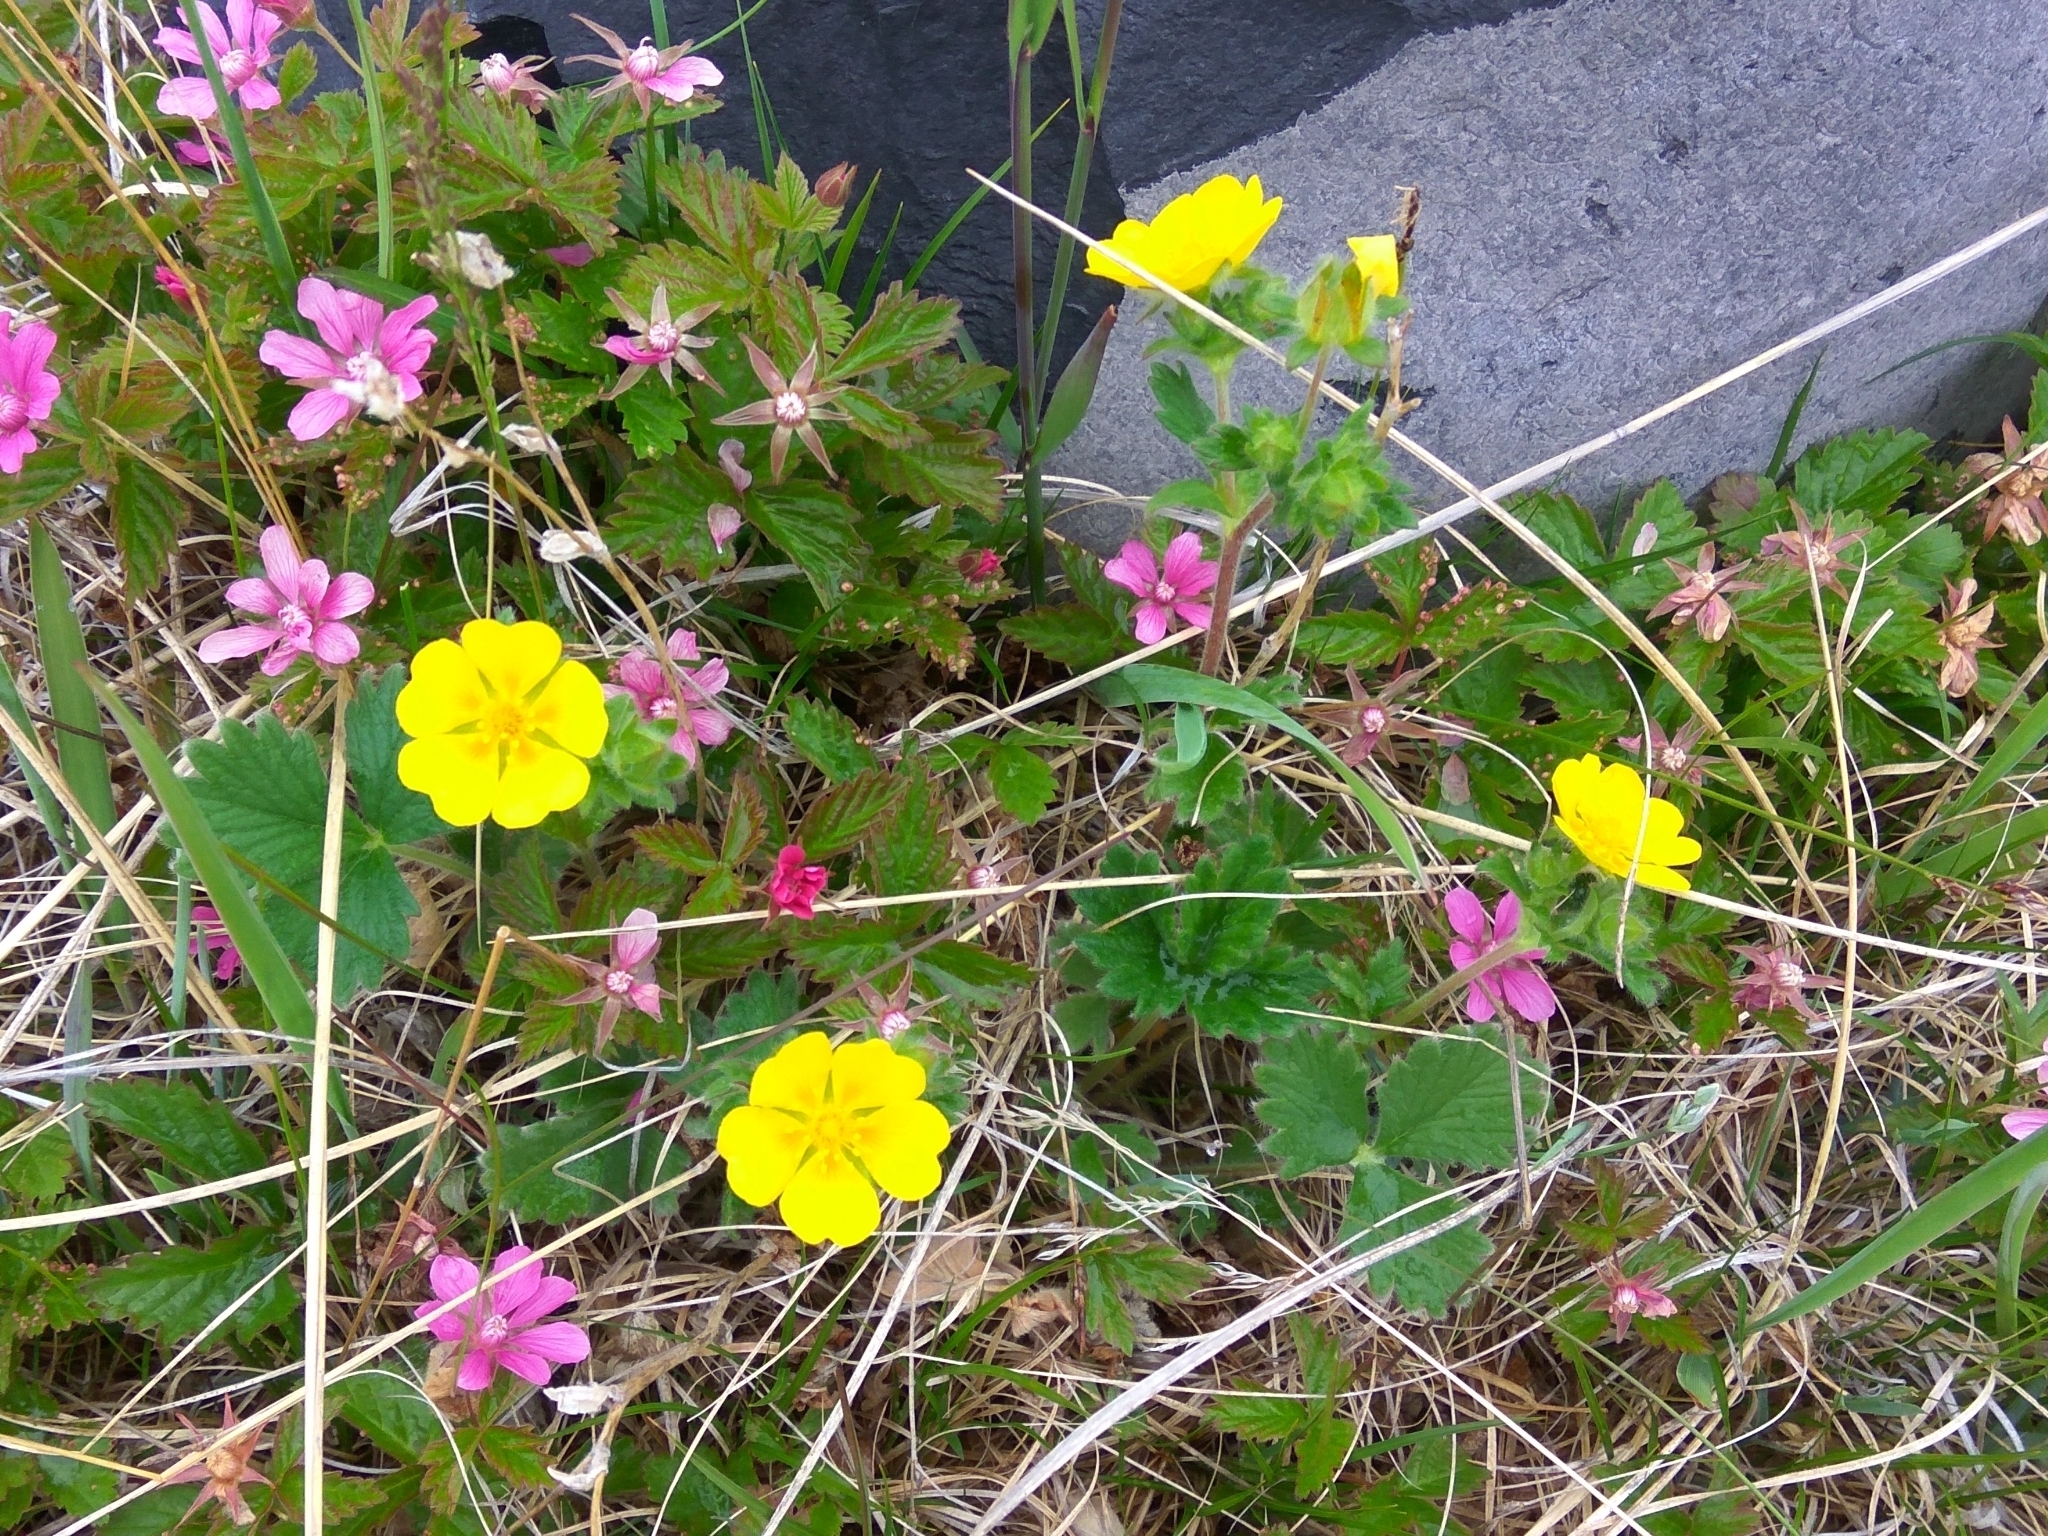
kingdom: Plantae
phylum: Tracheophyta
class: Magnoliopsida
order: Rosales
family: Rosaceae
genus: Rubus
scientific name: Rubus arcticus
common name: Arctic bramble
